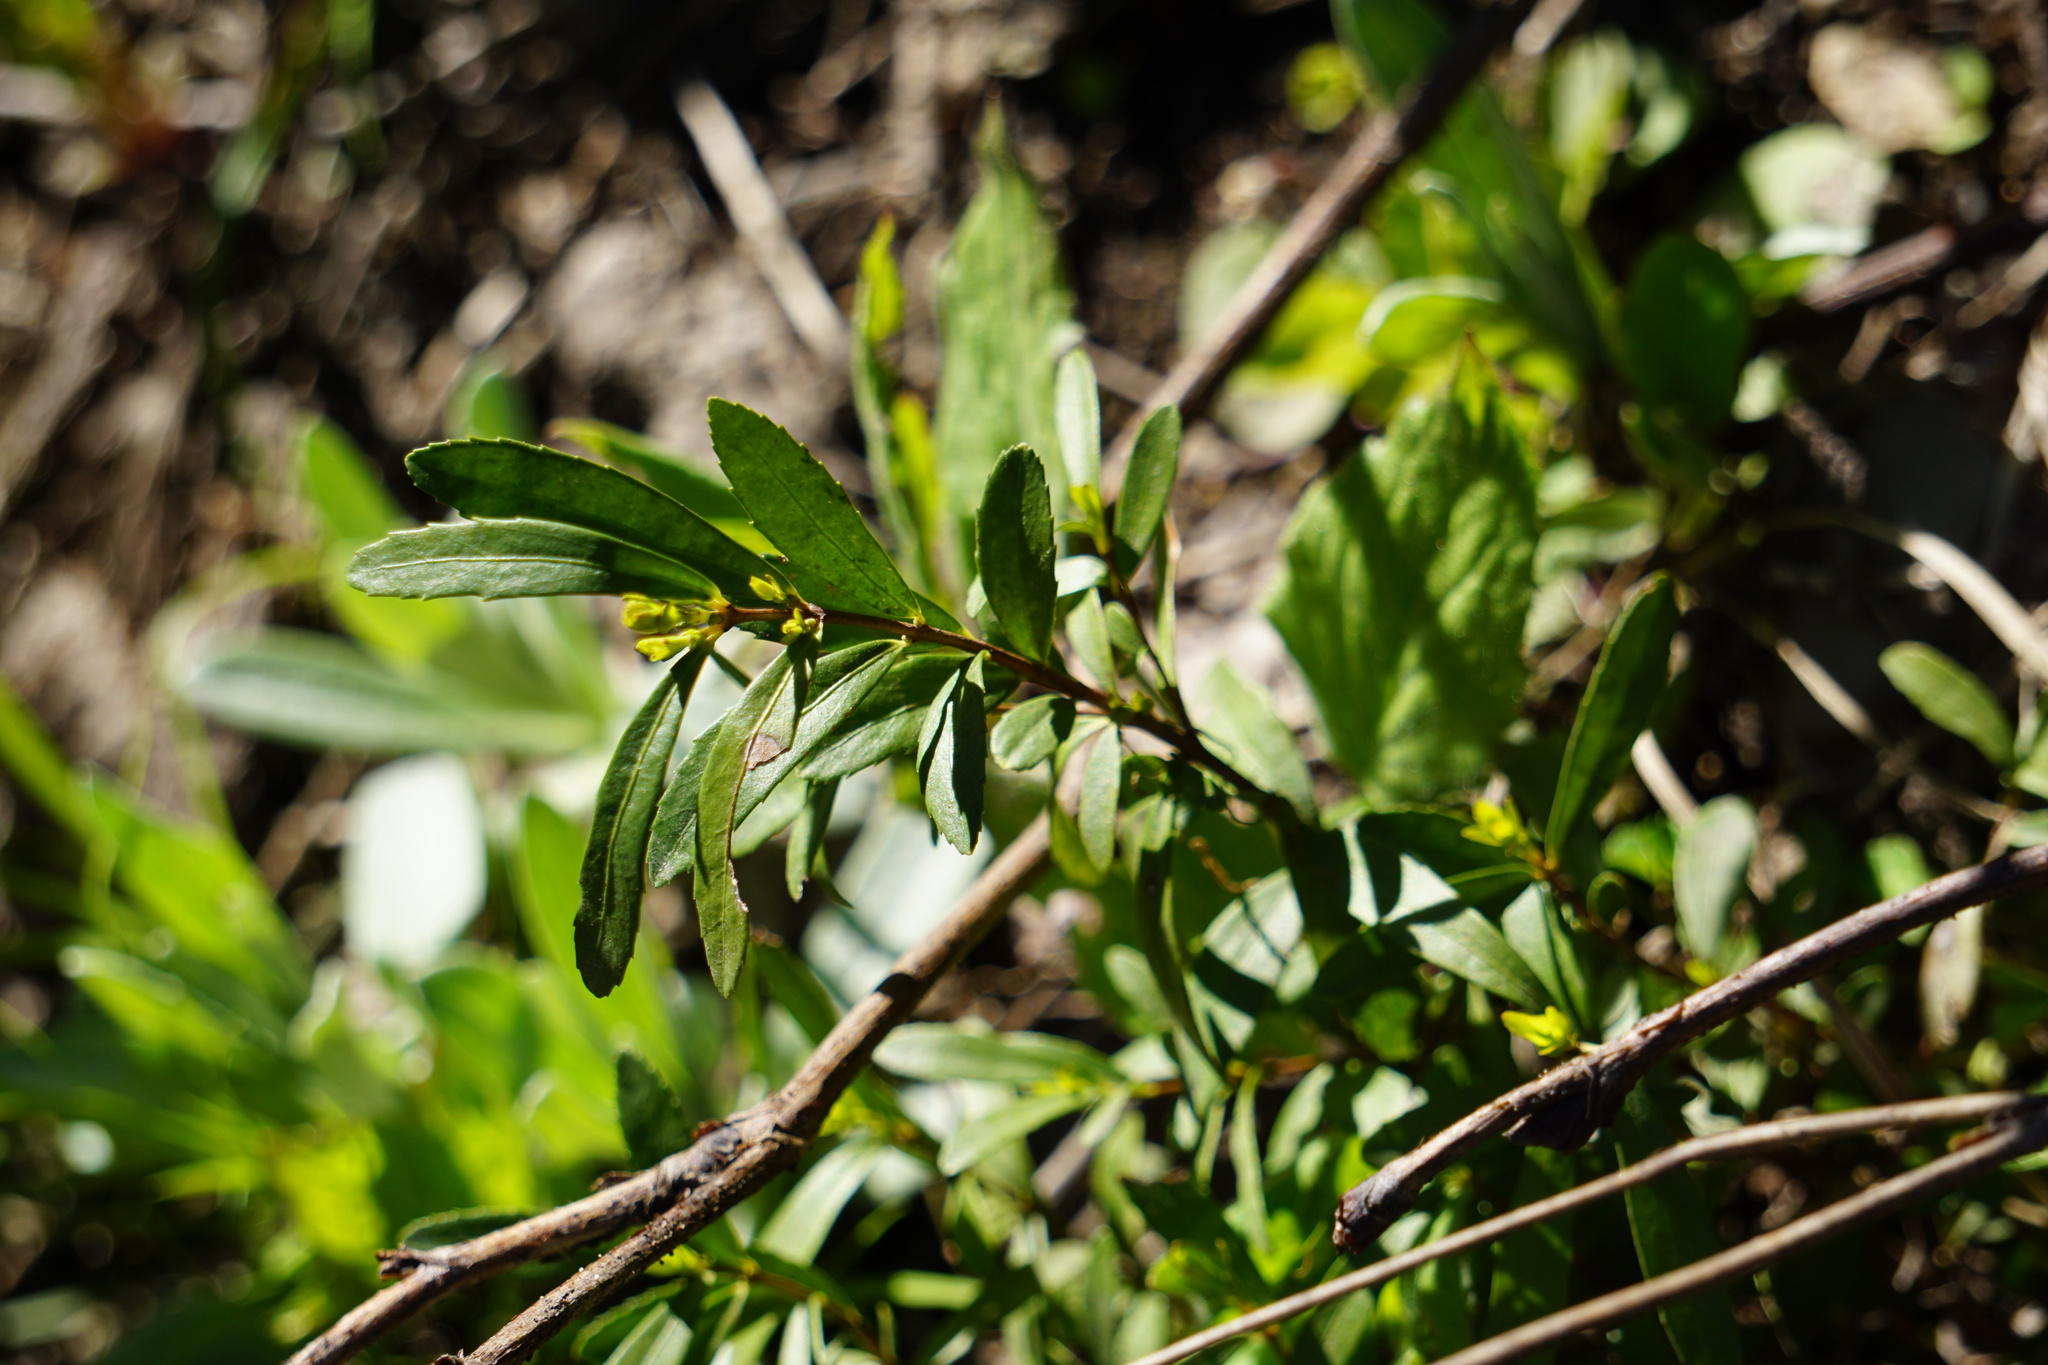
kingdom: Plantae
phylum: Tracheophyta
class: Magnoliopsida
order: Celastrales
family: Celastraceae
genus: Paxistima
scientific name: Paxistima myrsinites
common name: Mountain-lover
